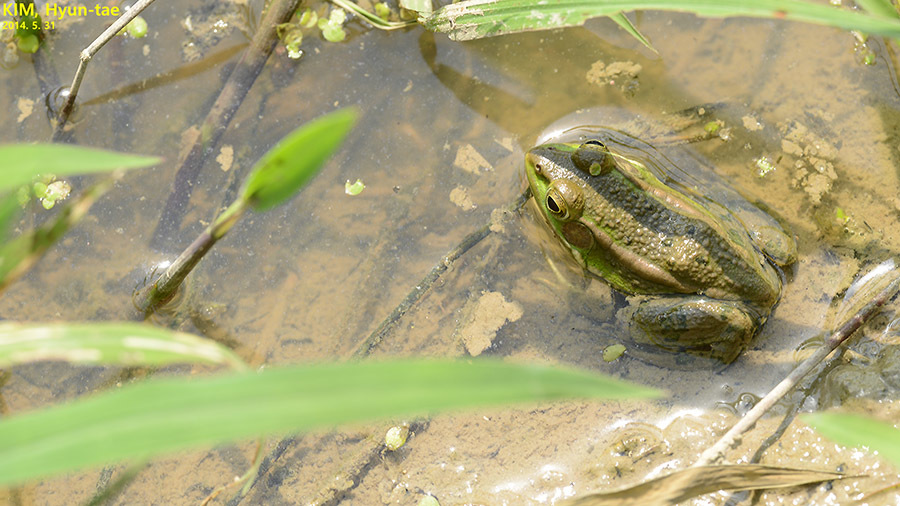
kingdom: Animalia
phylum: Chordata
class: Amphibia
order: Anura
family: Ranidae
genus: Pelophylax
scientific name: Pelophylax chosenicus
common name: Gold-spotted pond frog
